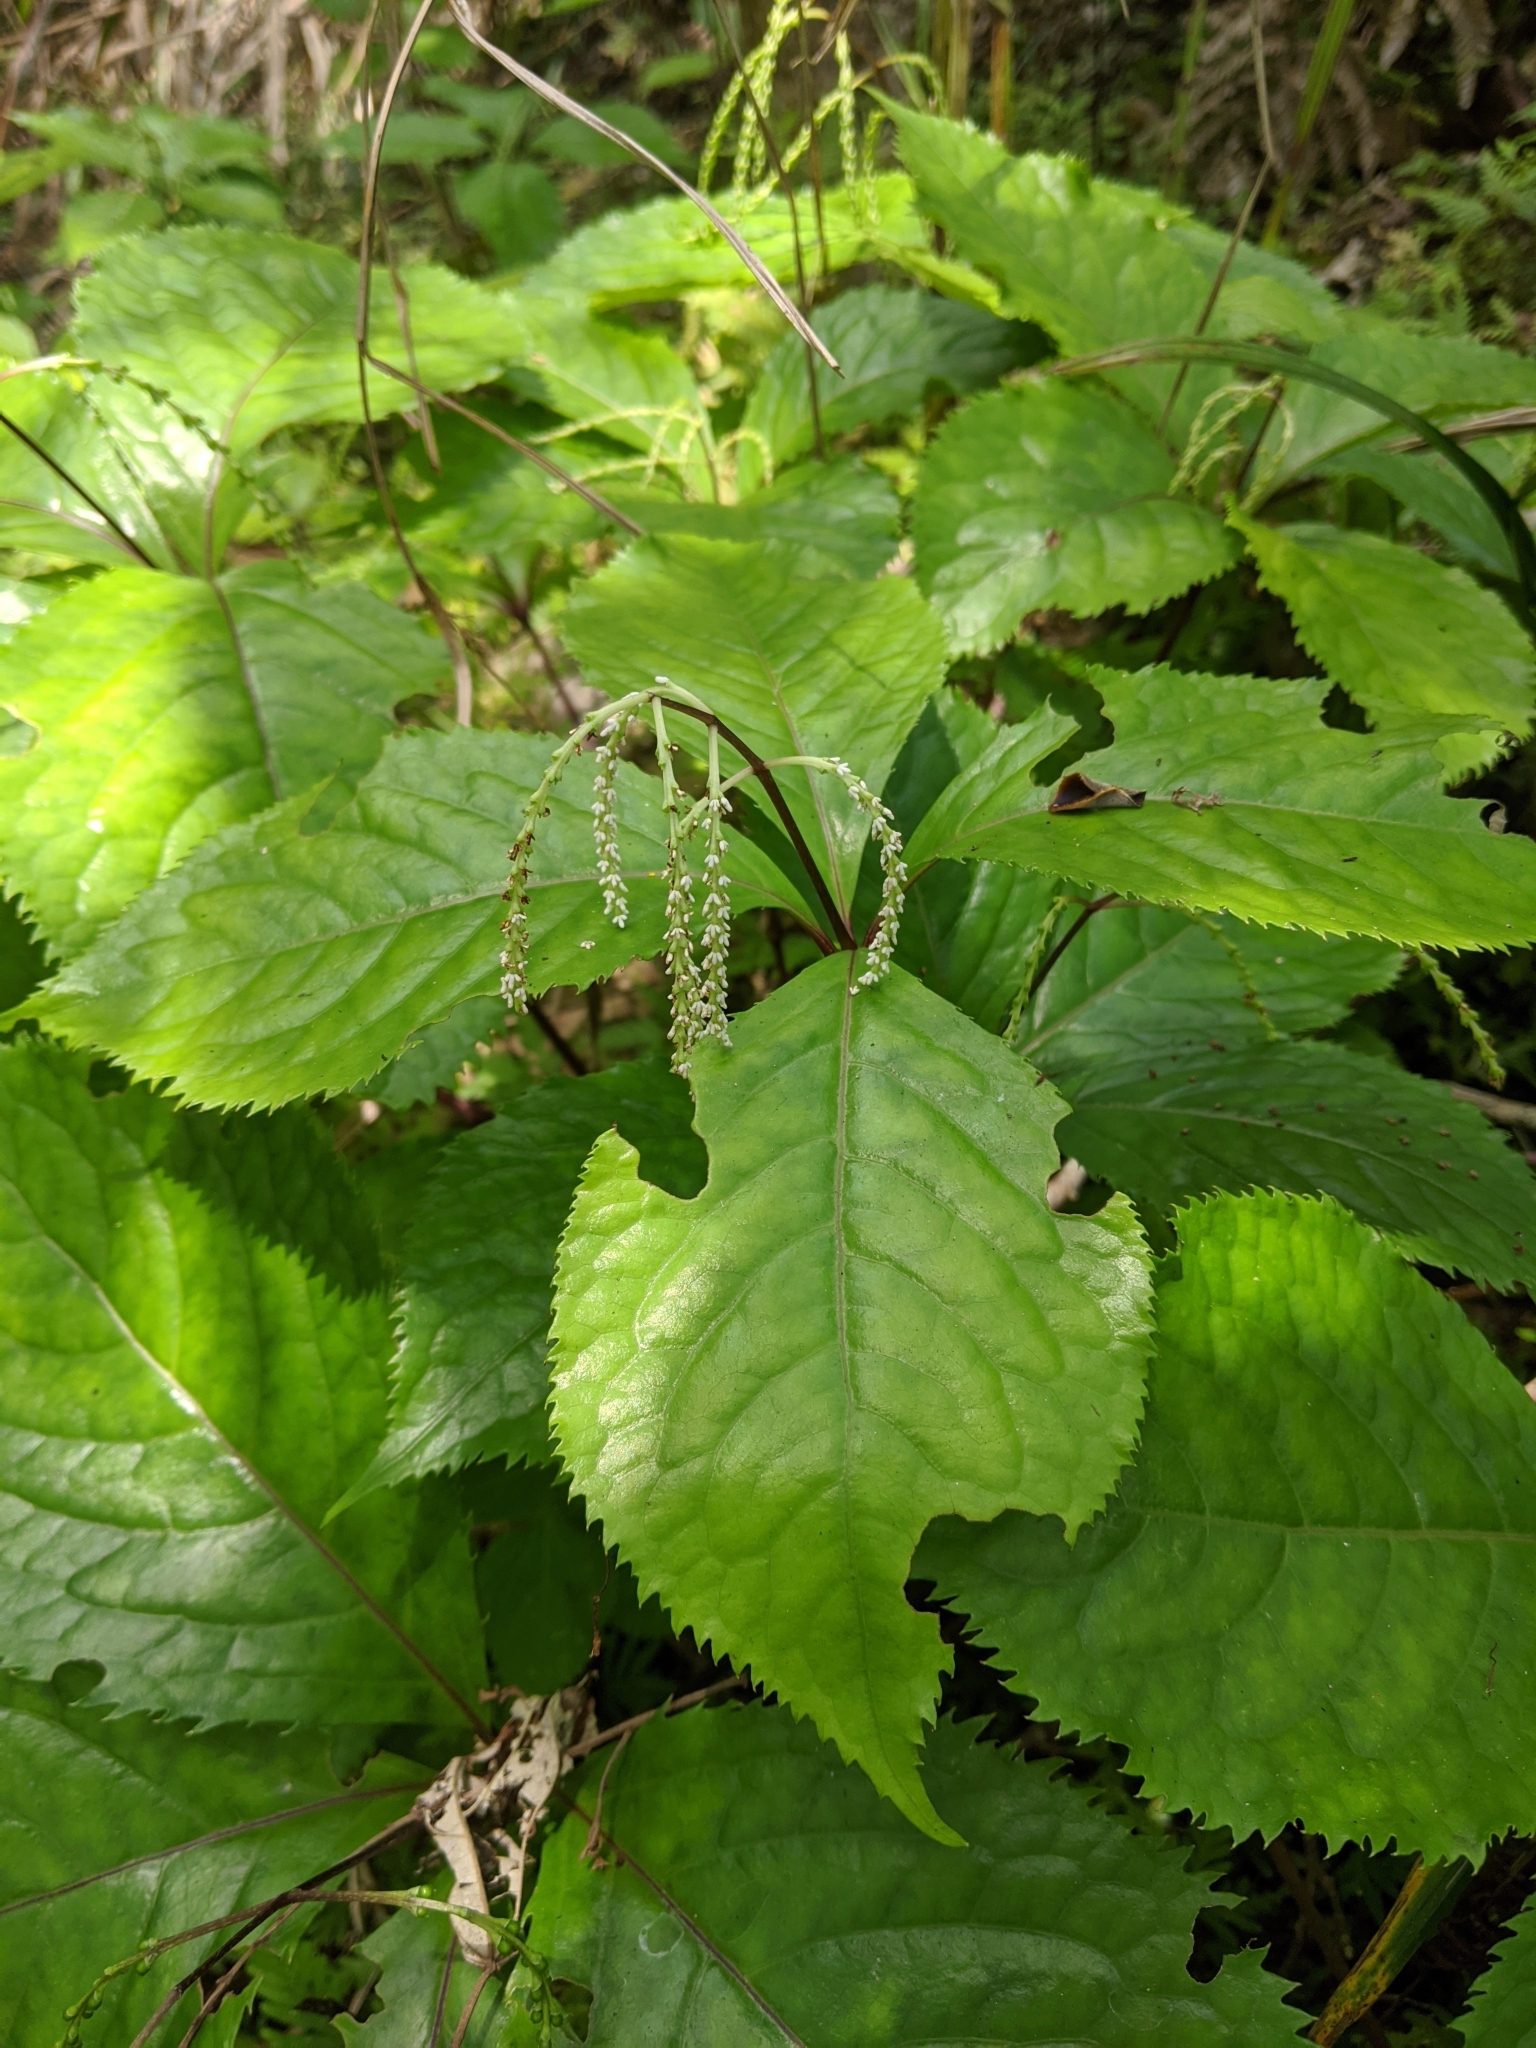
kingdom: Plantae
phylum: Tracheophyta
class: Magnoliopsida
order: Chloranthales
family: Chloranthaceae
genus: Chloranthus
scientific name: Chloranthus oldhamii
